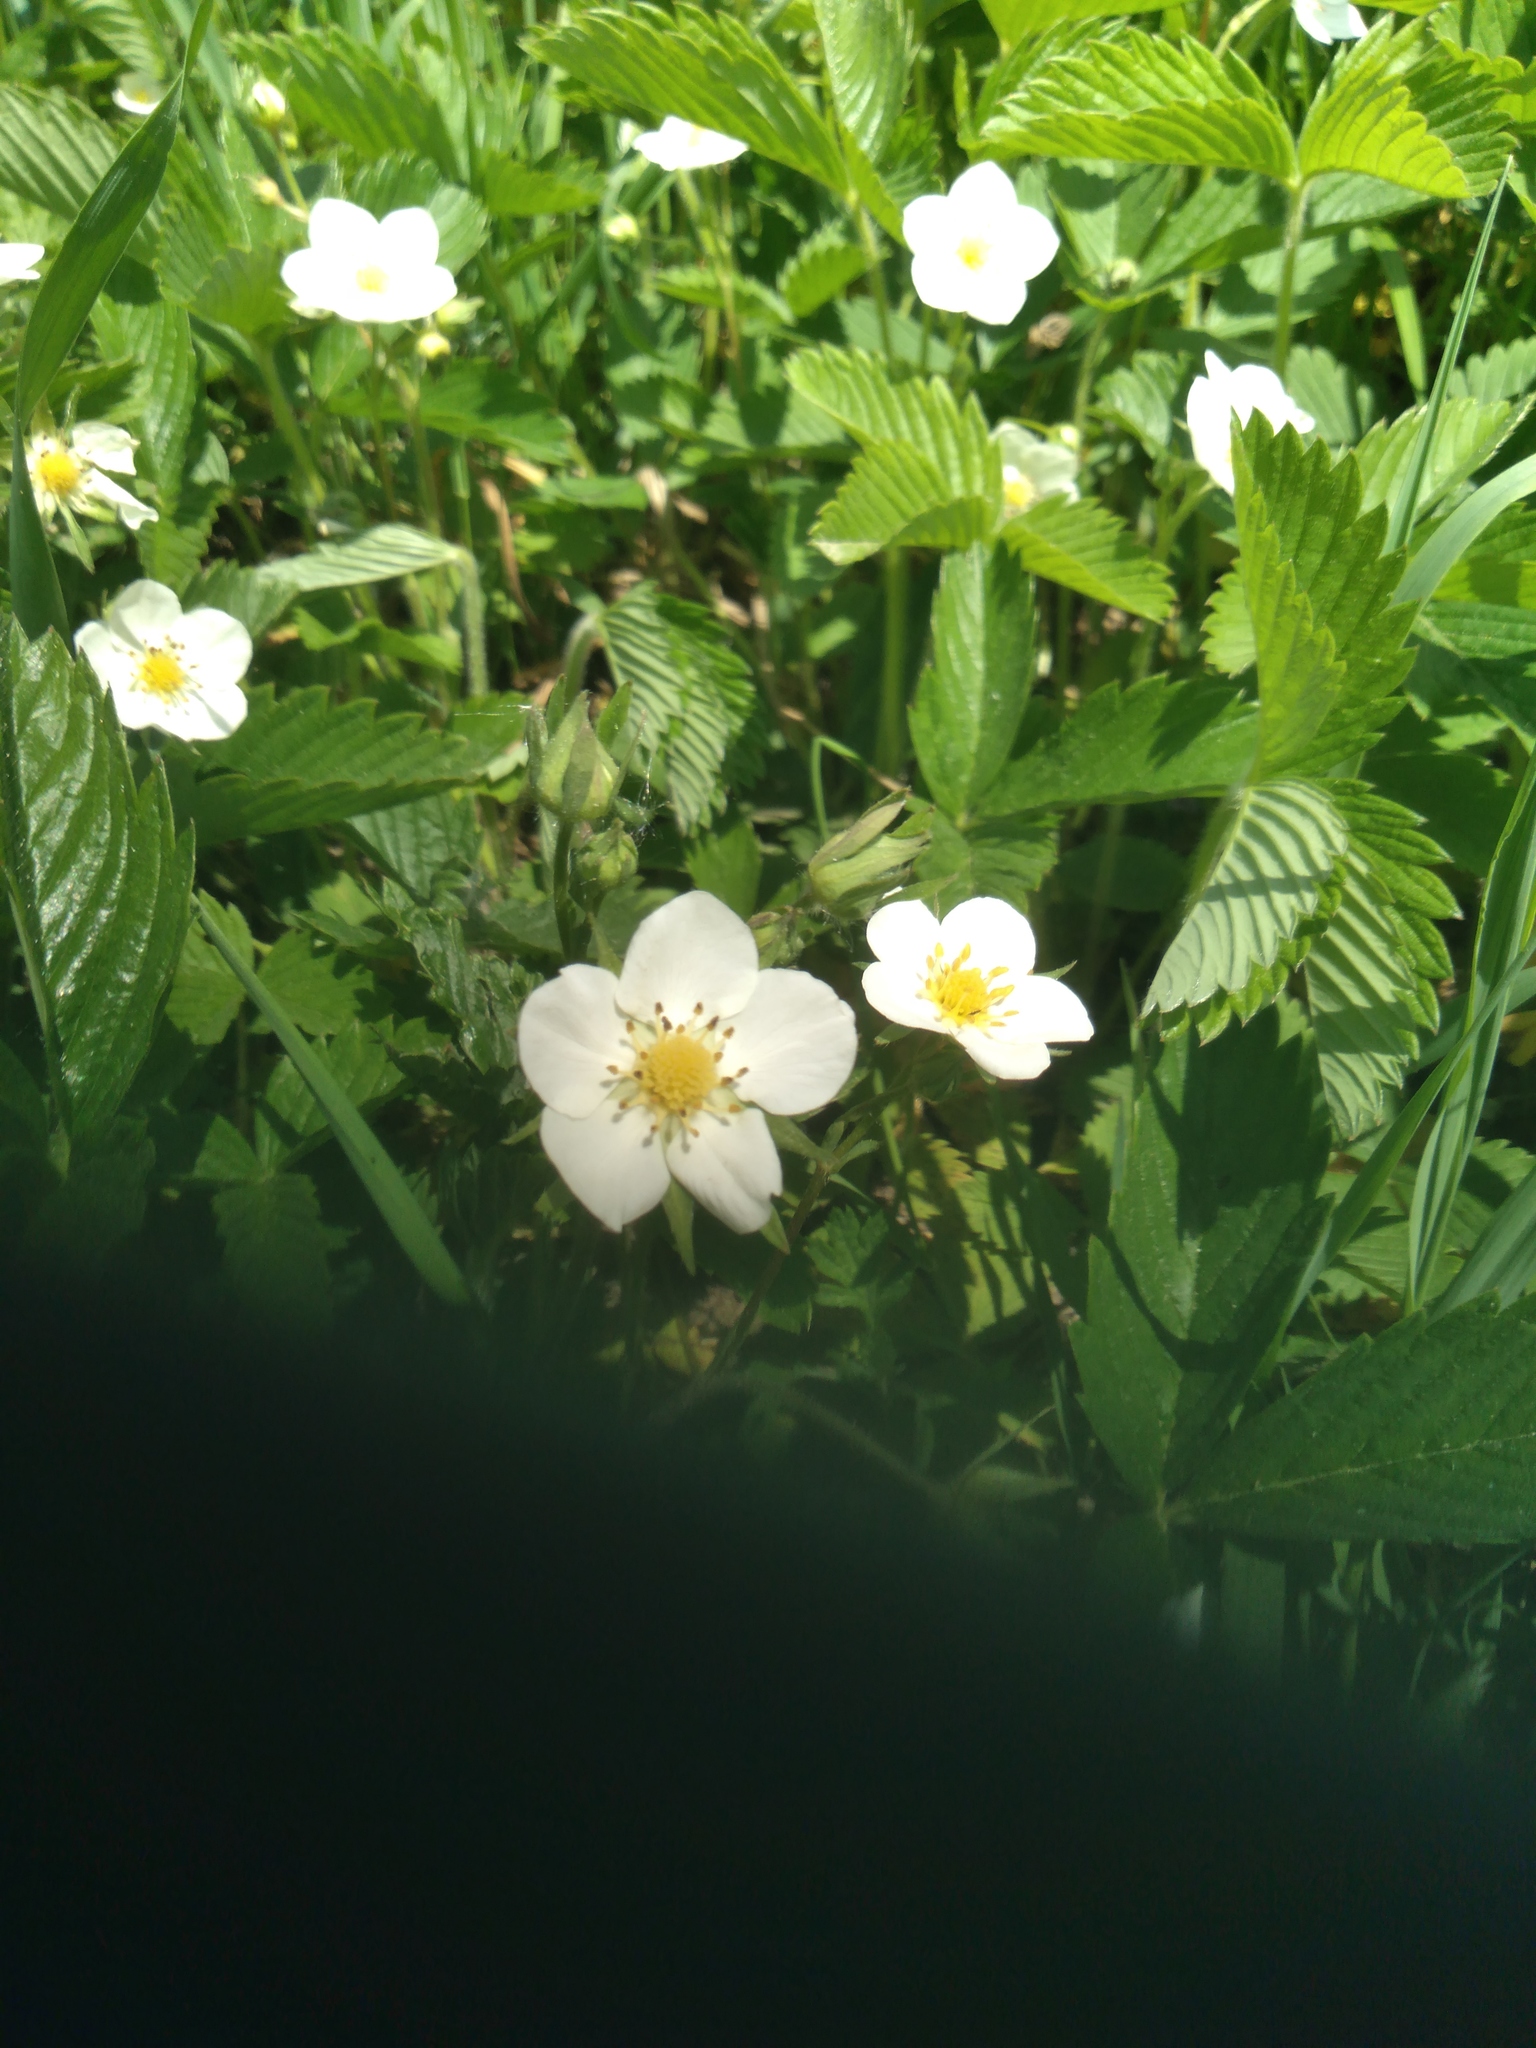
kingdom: Plantae
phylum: Tracheophyta
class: Magnoliopsida
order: Rosales
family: Rosaceae
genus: Fragaria
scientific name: Fragaria viridis
